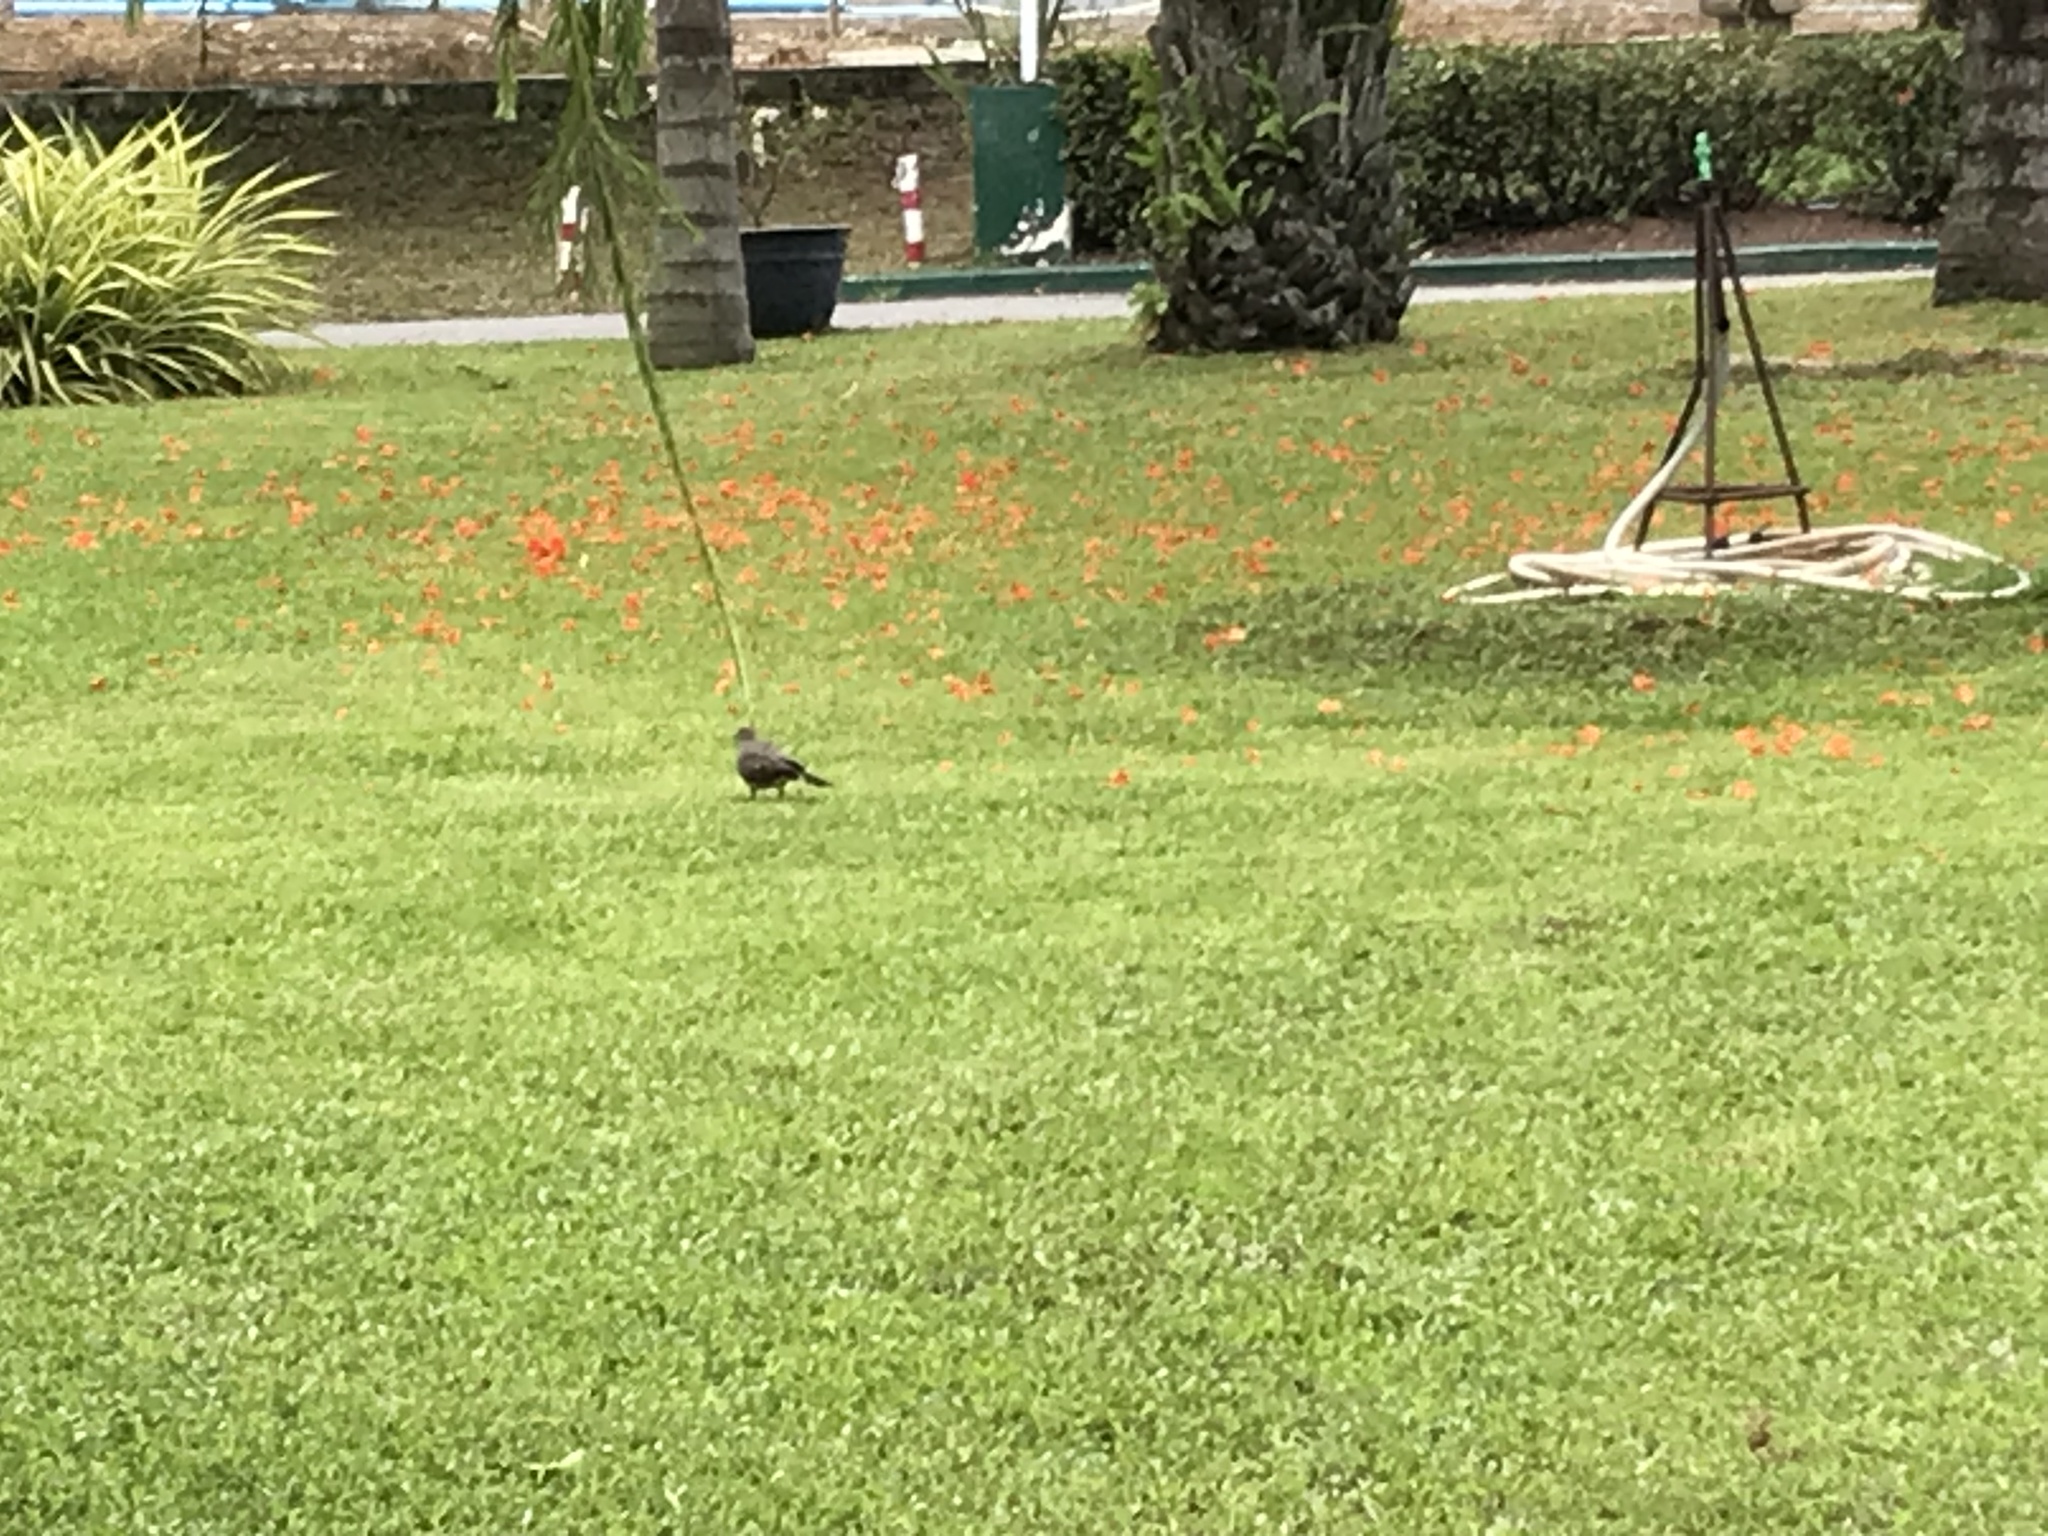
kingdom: Animalia
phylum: Chordata
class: Aves
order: Columbiformes
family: Columbidae
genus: Spilopelia
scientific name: Spilopelia chinensis
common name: Spotted dove
